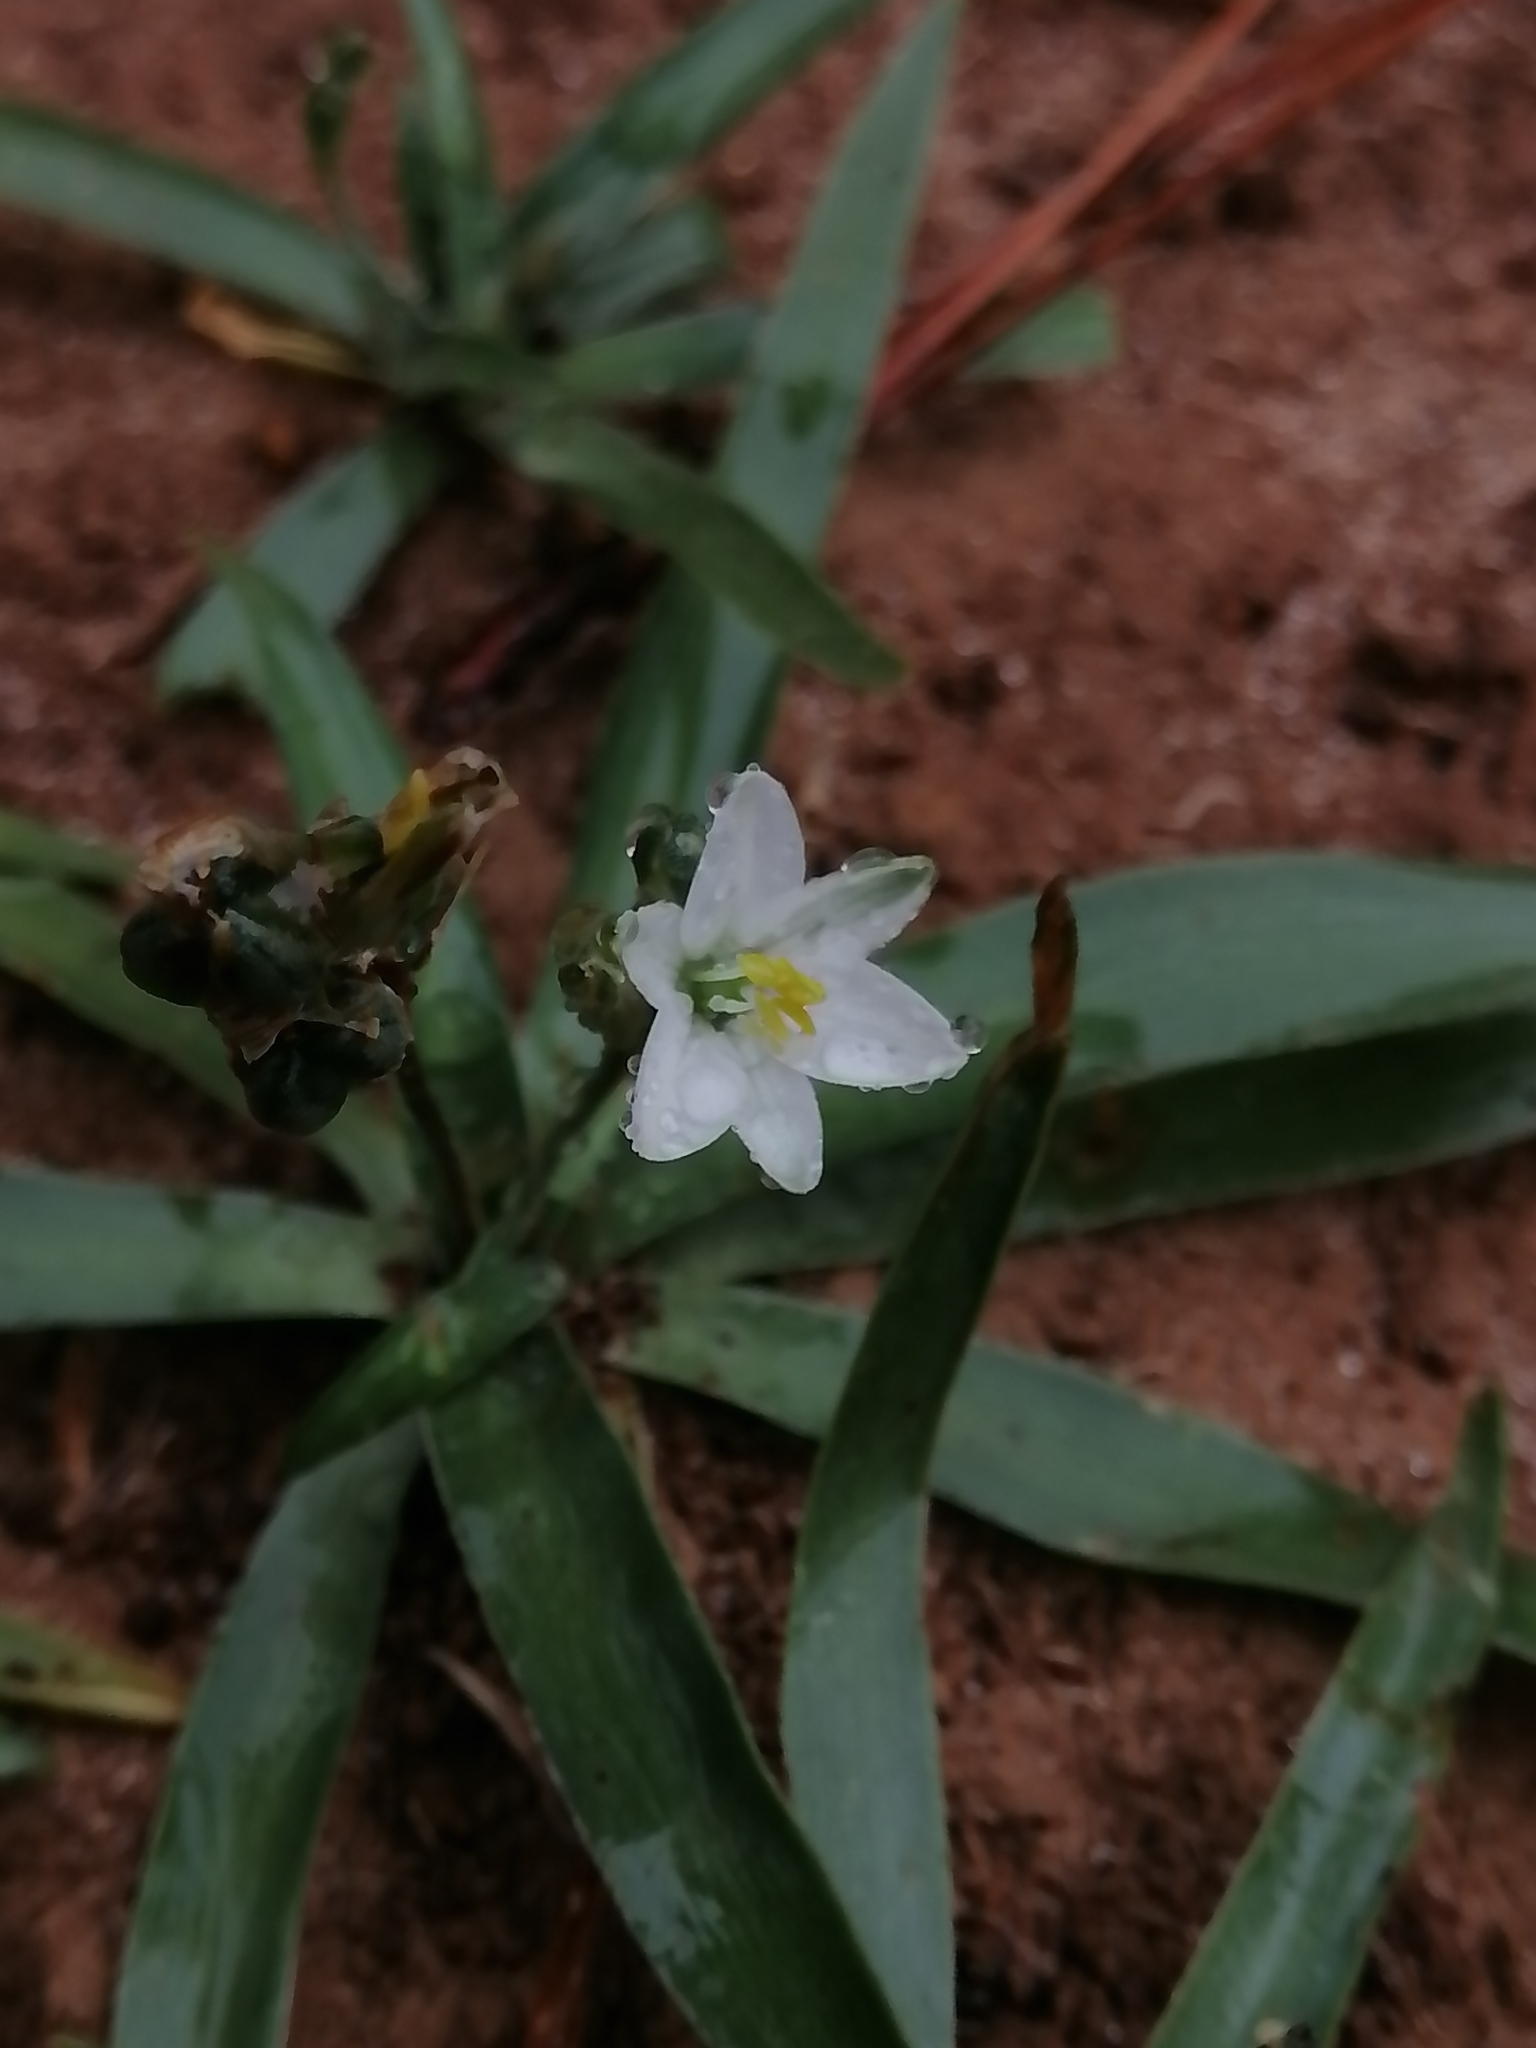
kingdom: Plantae
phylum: Tracheophyta
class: Liliopsida
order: Asparagales
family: Asparagaceae
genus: Echeandia
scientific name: Echeandia nana
